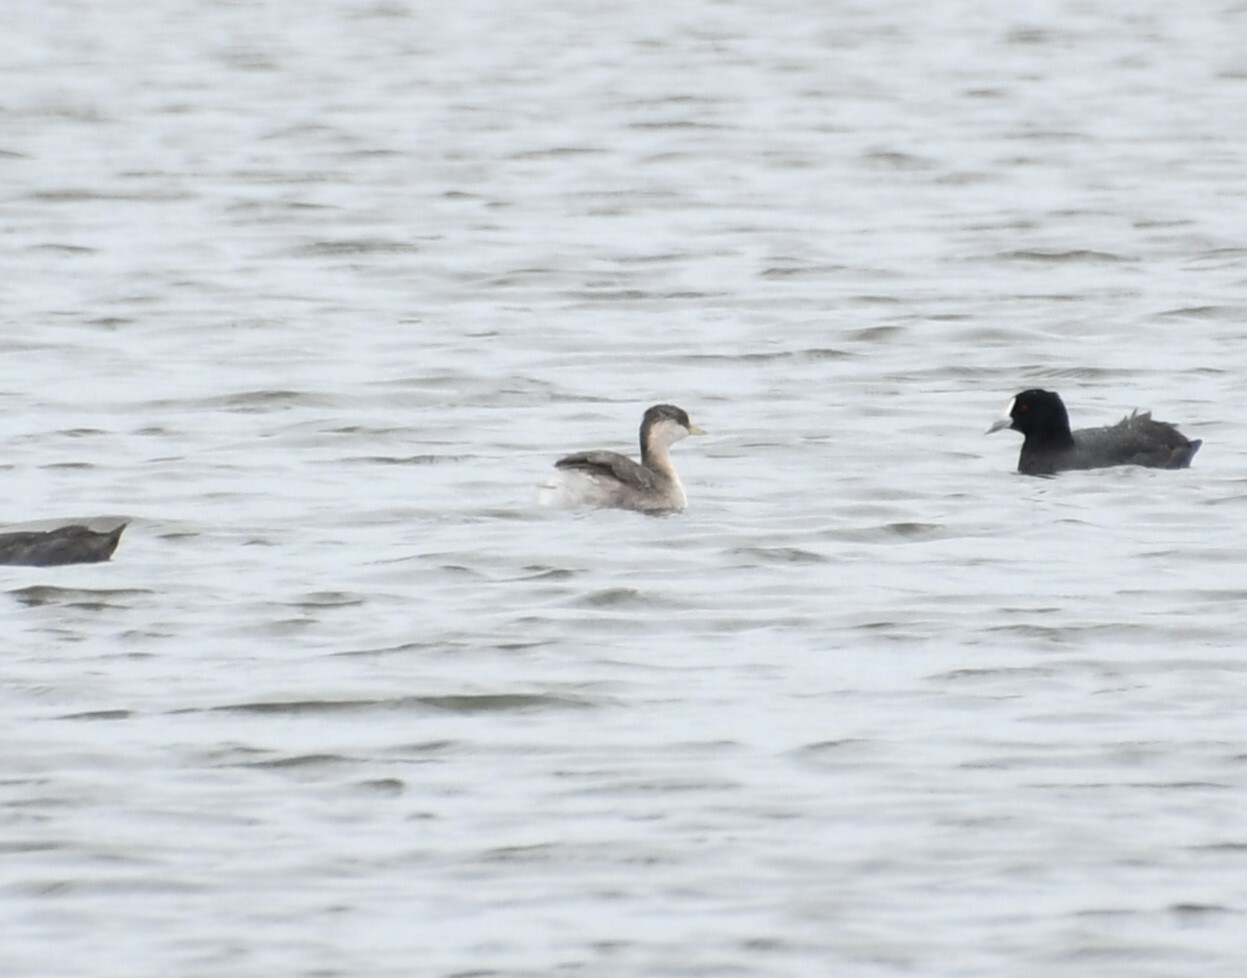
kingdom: Animalia
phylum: Chordata
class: Aves
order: Podicipediformes
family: Podicipedidae
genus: Poliocephalus
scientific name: Poliocephalus poliocephalus
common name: Hoary-headed grebe
